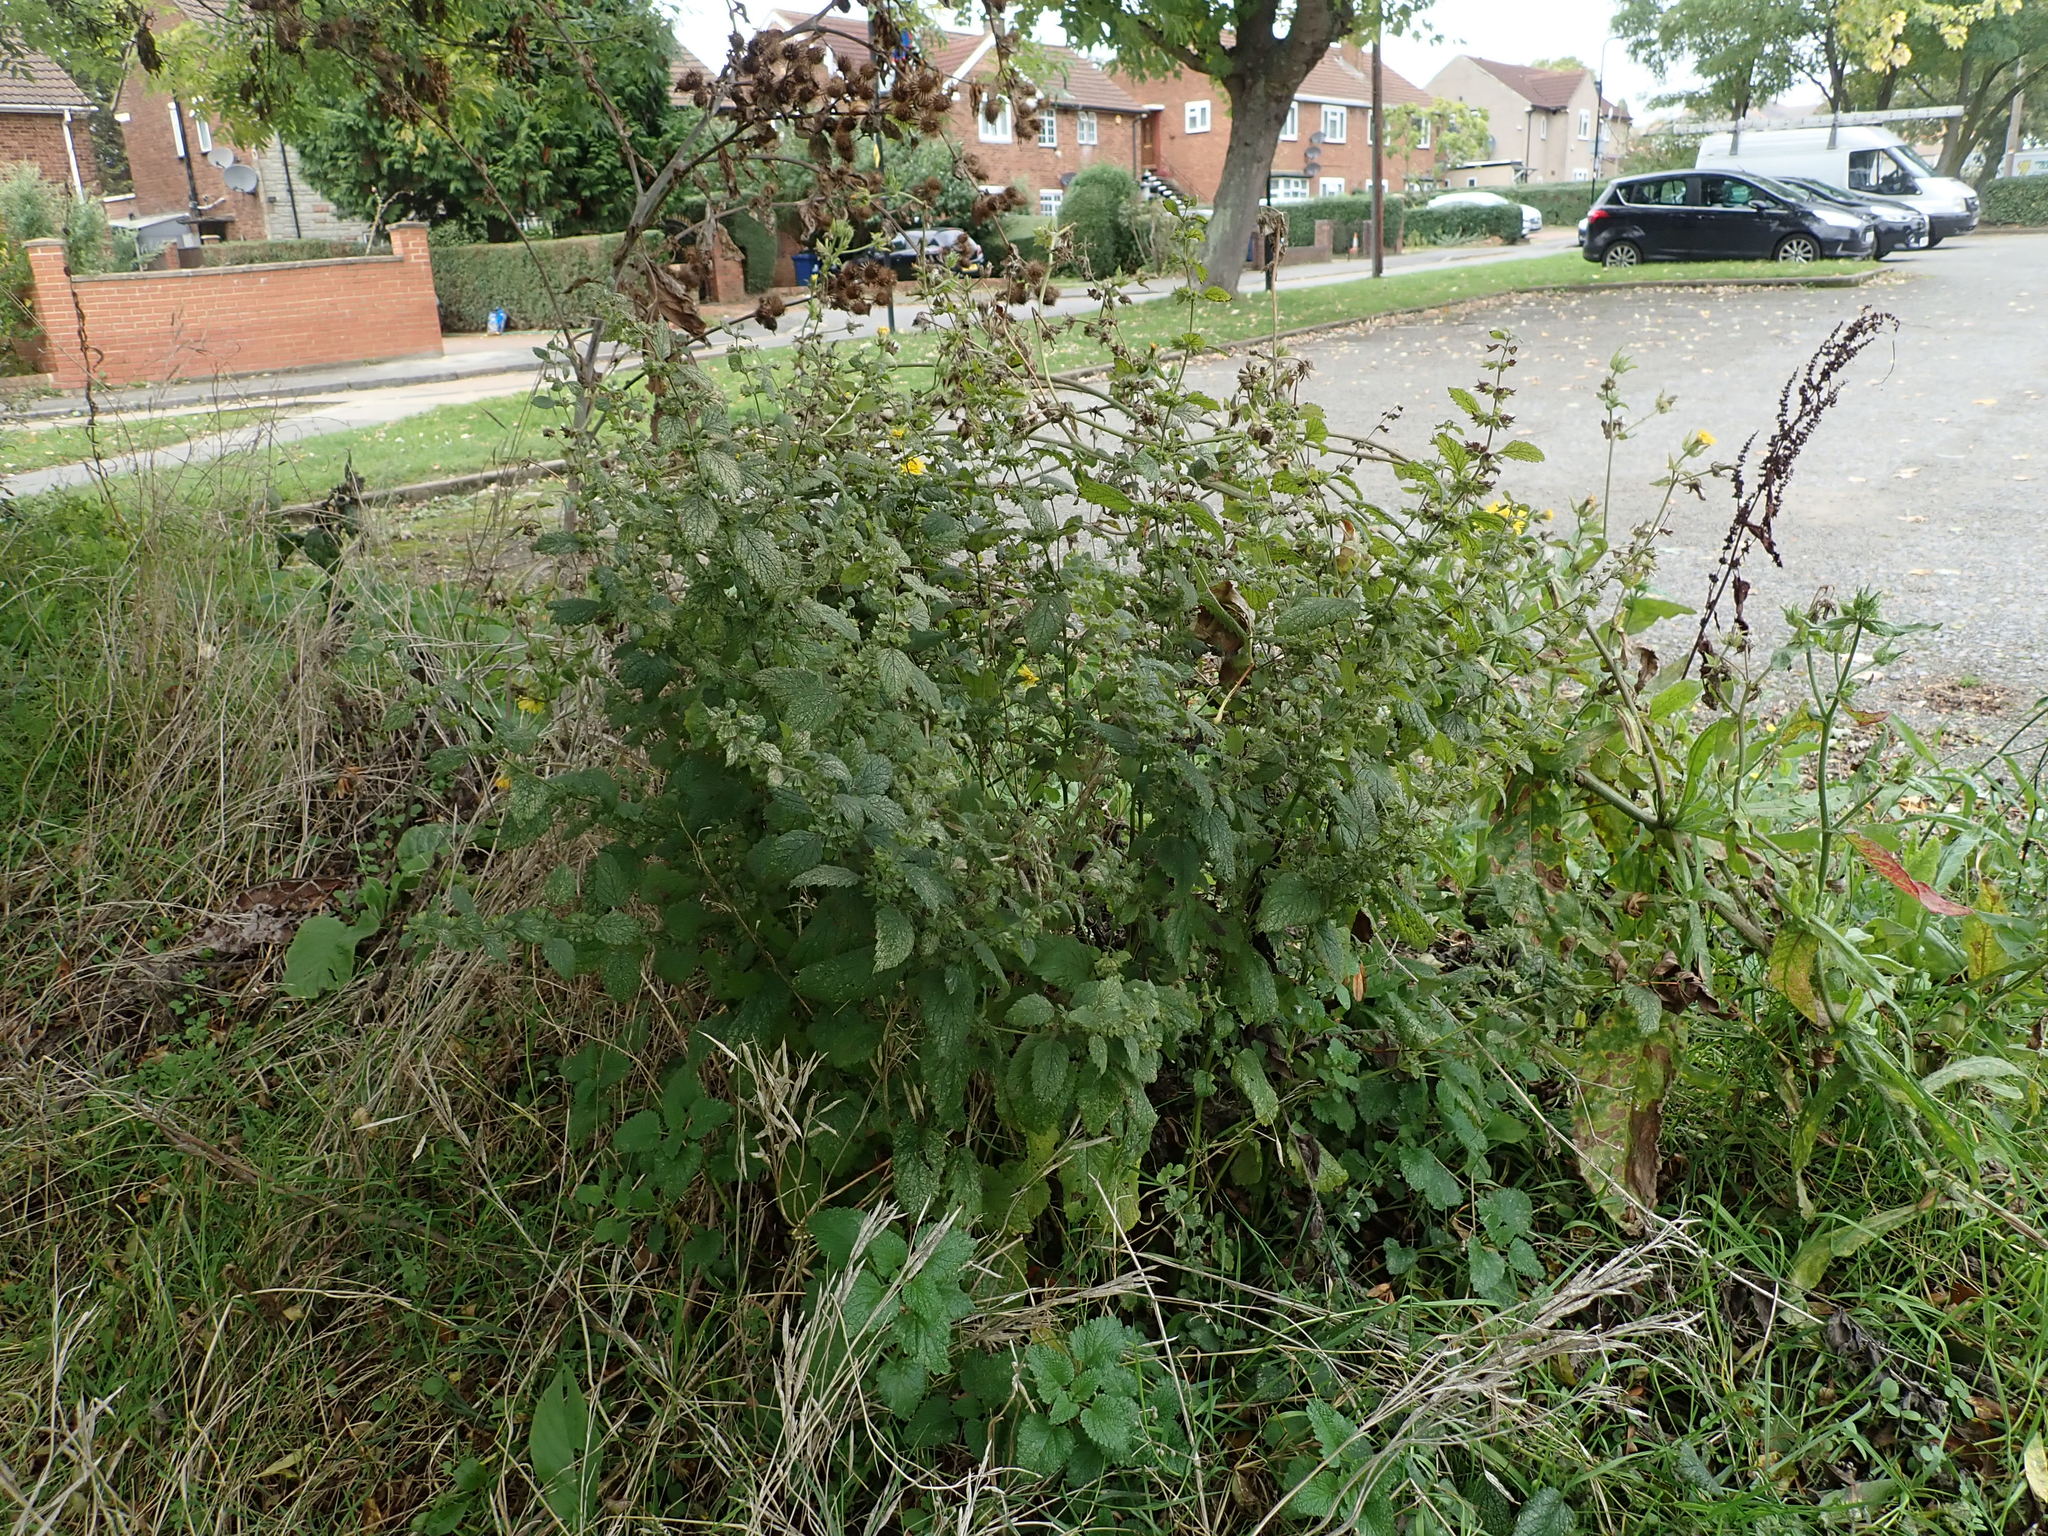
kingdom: Plantae
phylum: Tracheophyta
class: Magnoliopsida
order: Lamiales
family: Lamiaceae
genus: Melissa
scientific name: Melissa officinalis
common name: Balm
